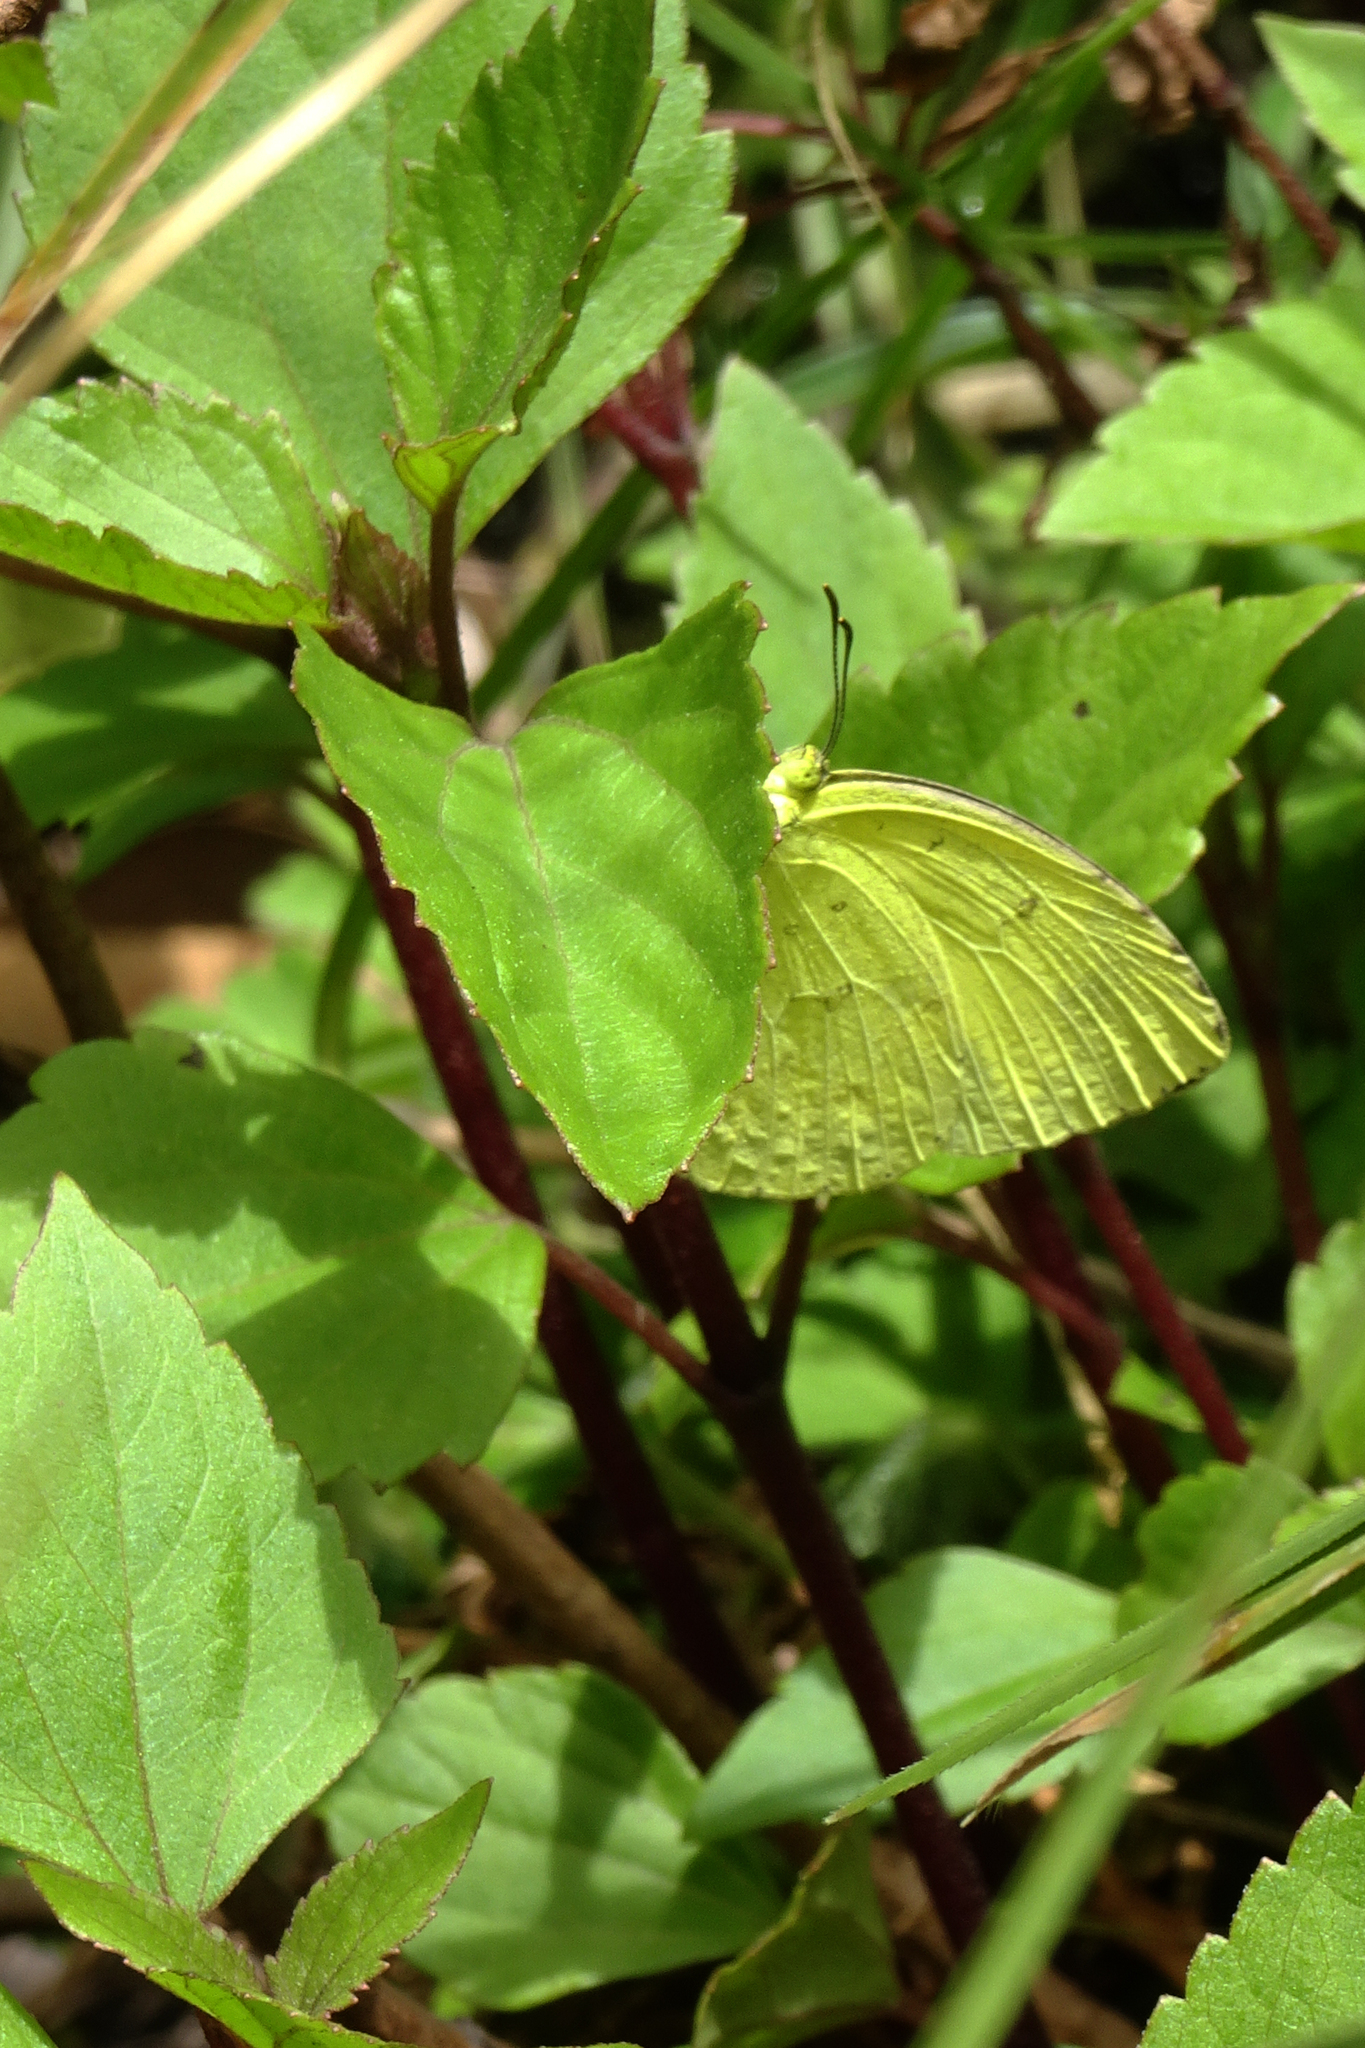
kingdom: Animalia
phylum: Arthropoda
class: Insecta
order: Lepidoptera
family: Pieridae
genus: Eurema
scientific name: Eurema hecabe
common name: Pale grass yellow
